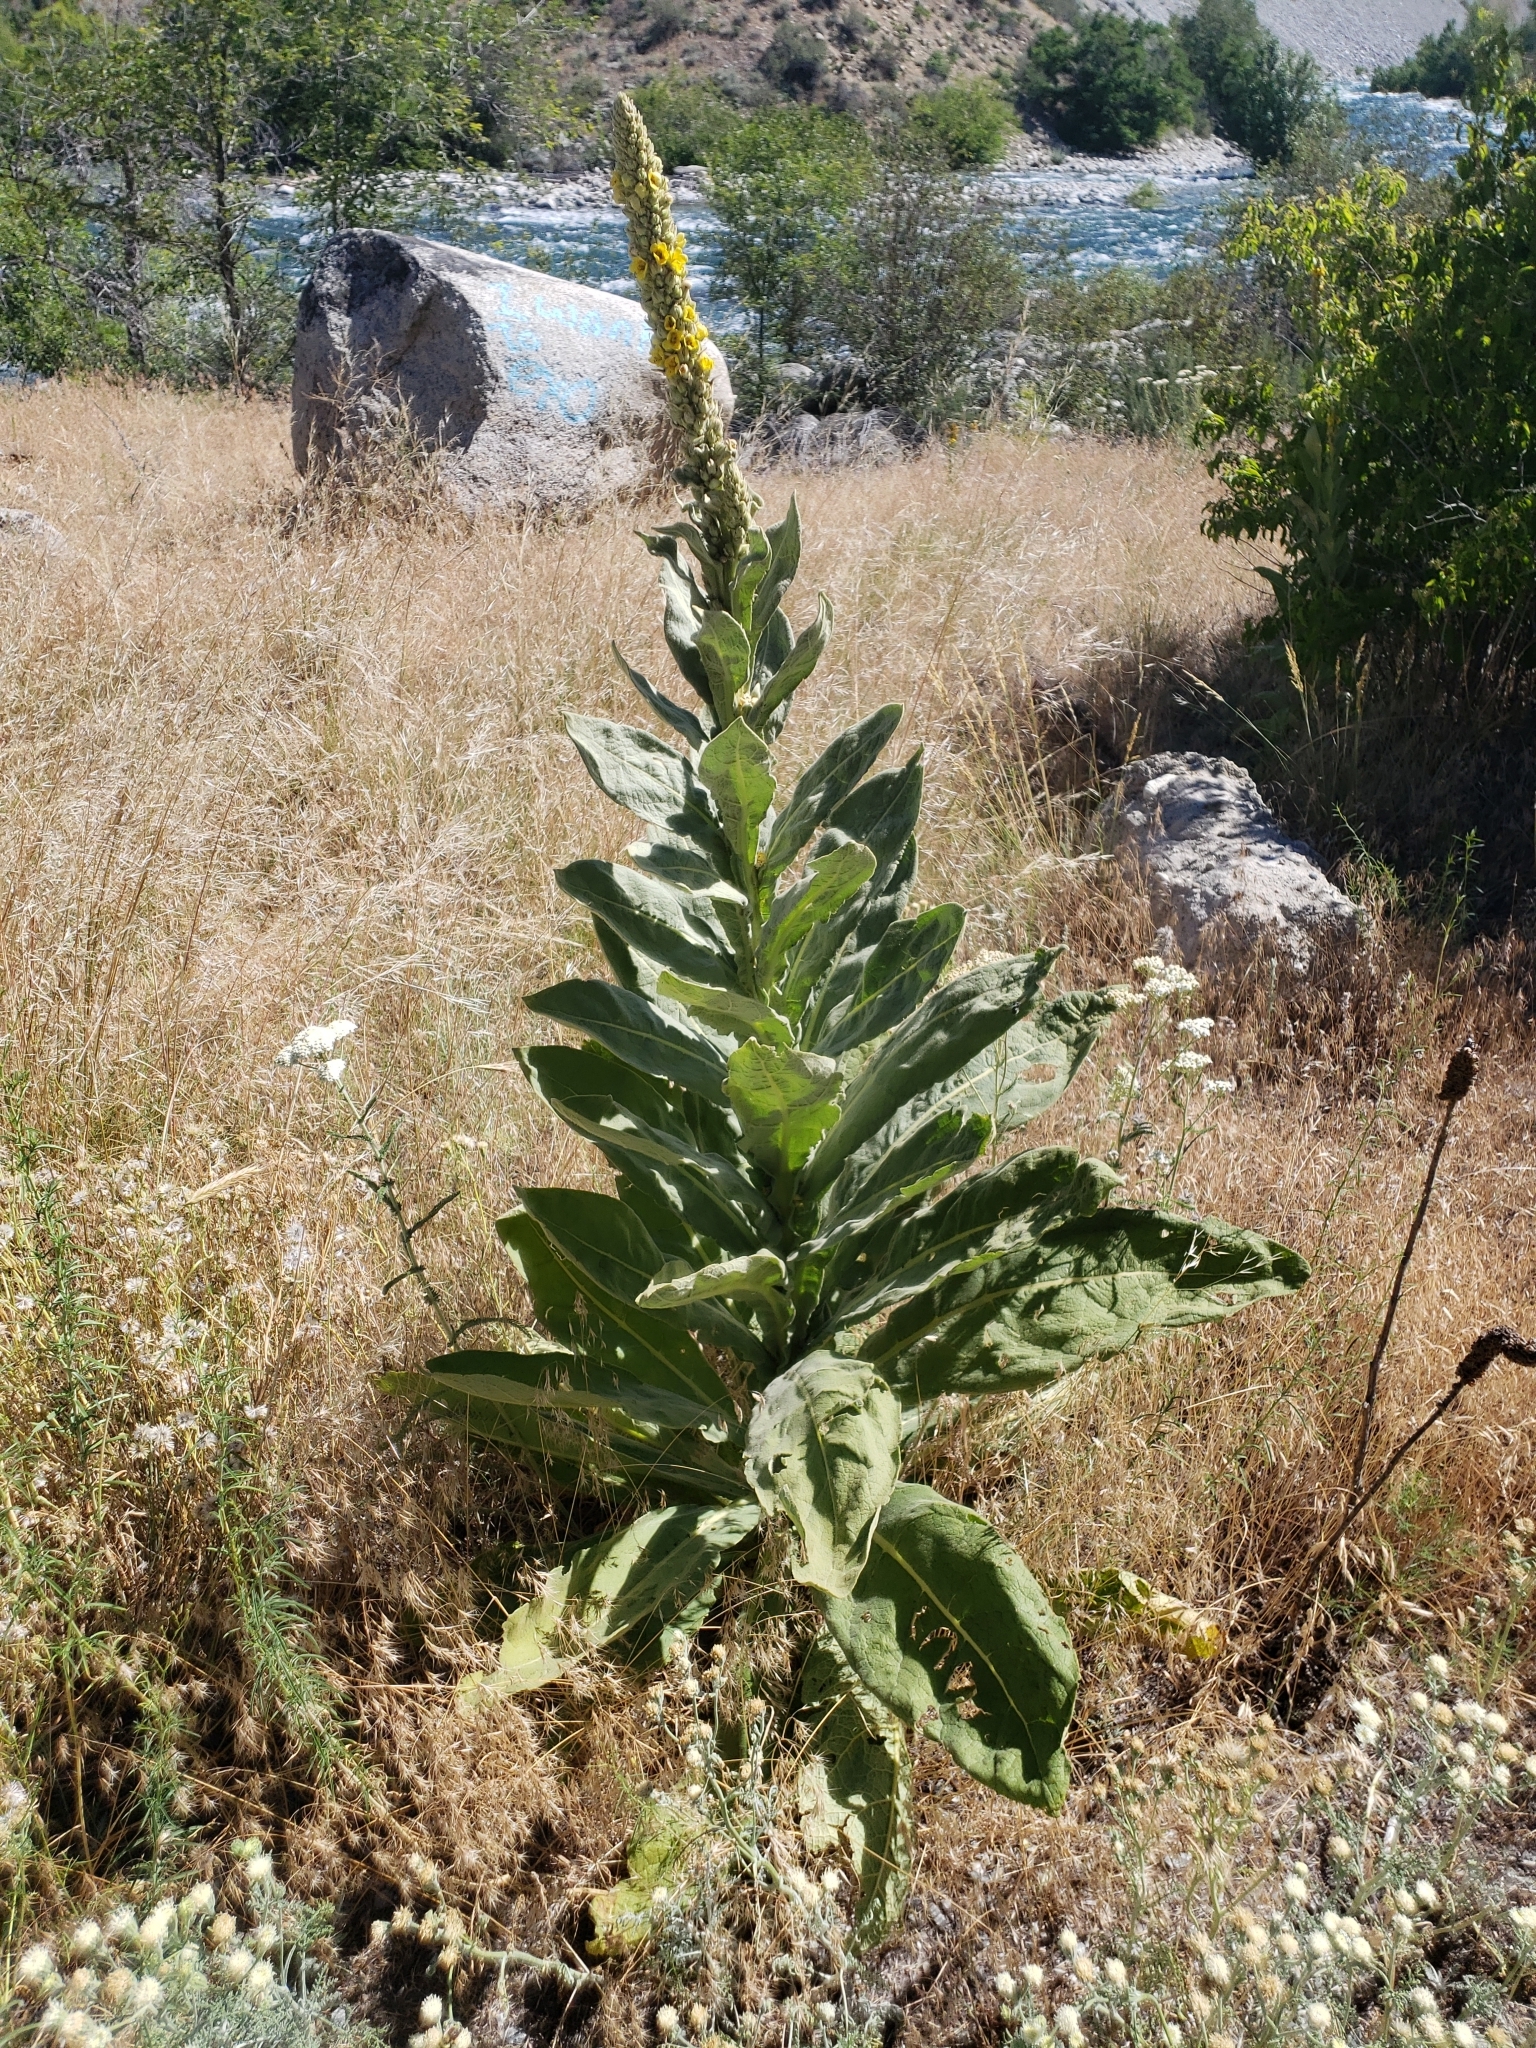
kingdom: Plantae
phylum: Tracheophyta
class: Magnoliopsida
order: Lamiales
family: Scrophulariaceae
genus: Verbascum
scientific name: Verbascum thapsus
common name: Common mullein
